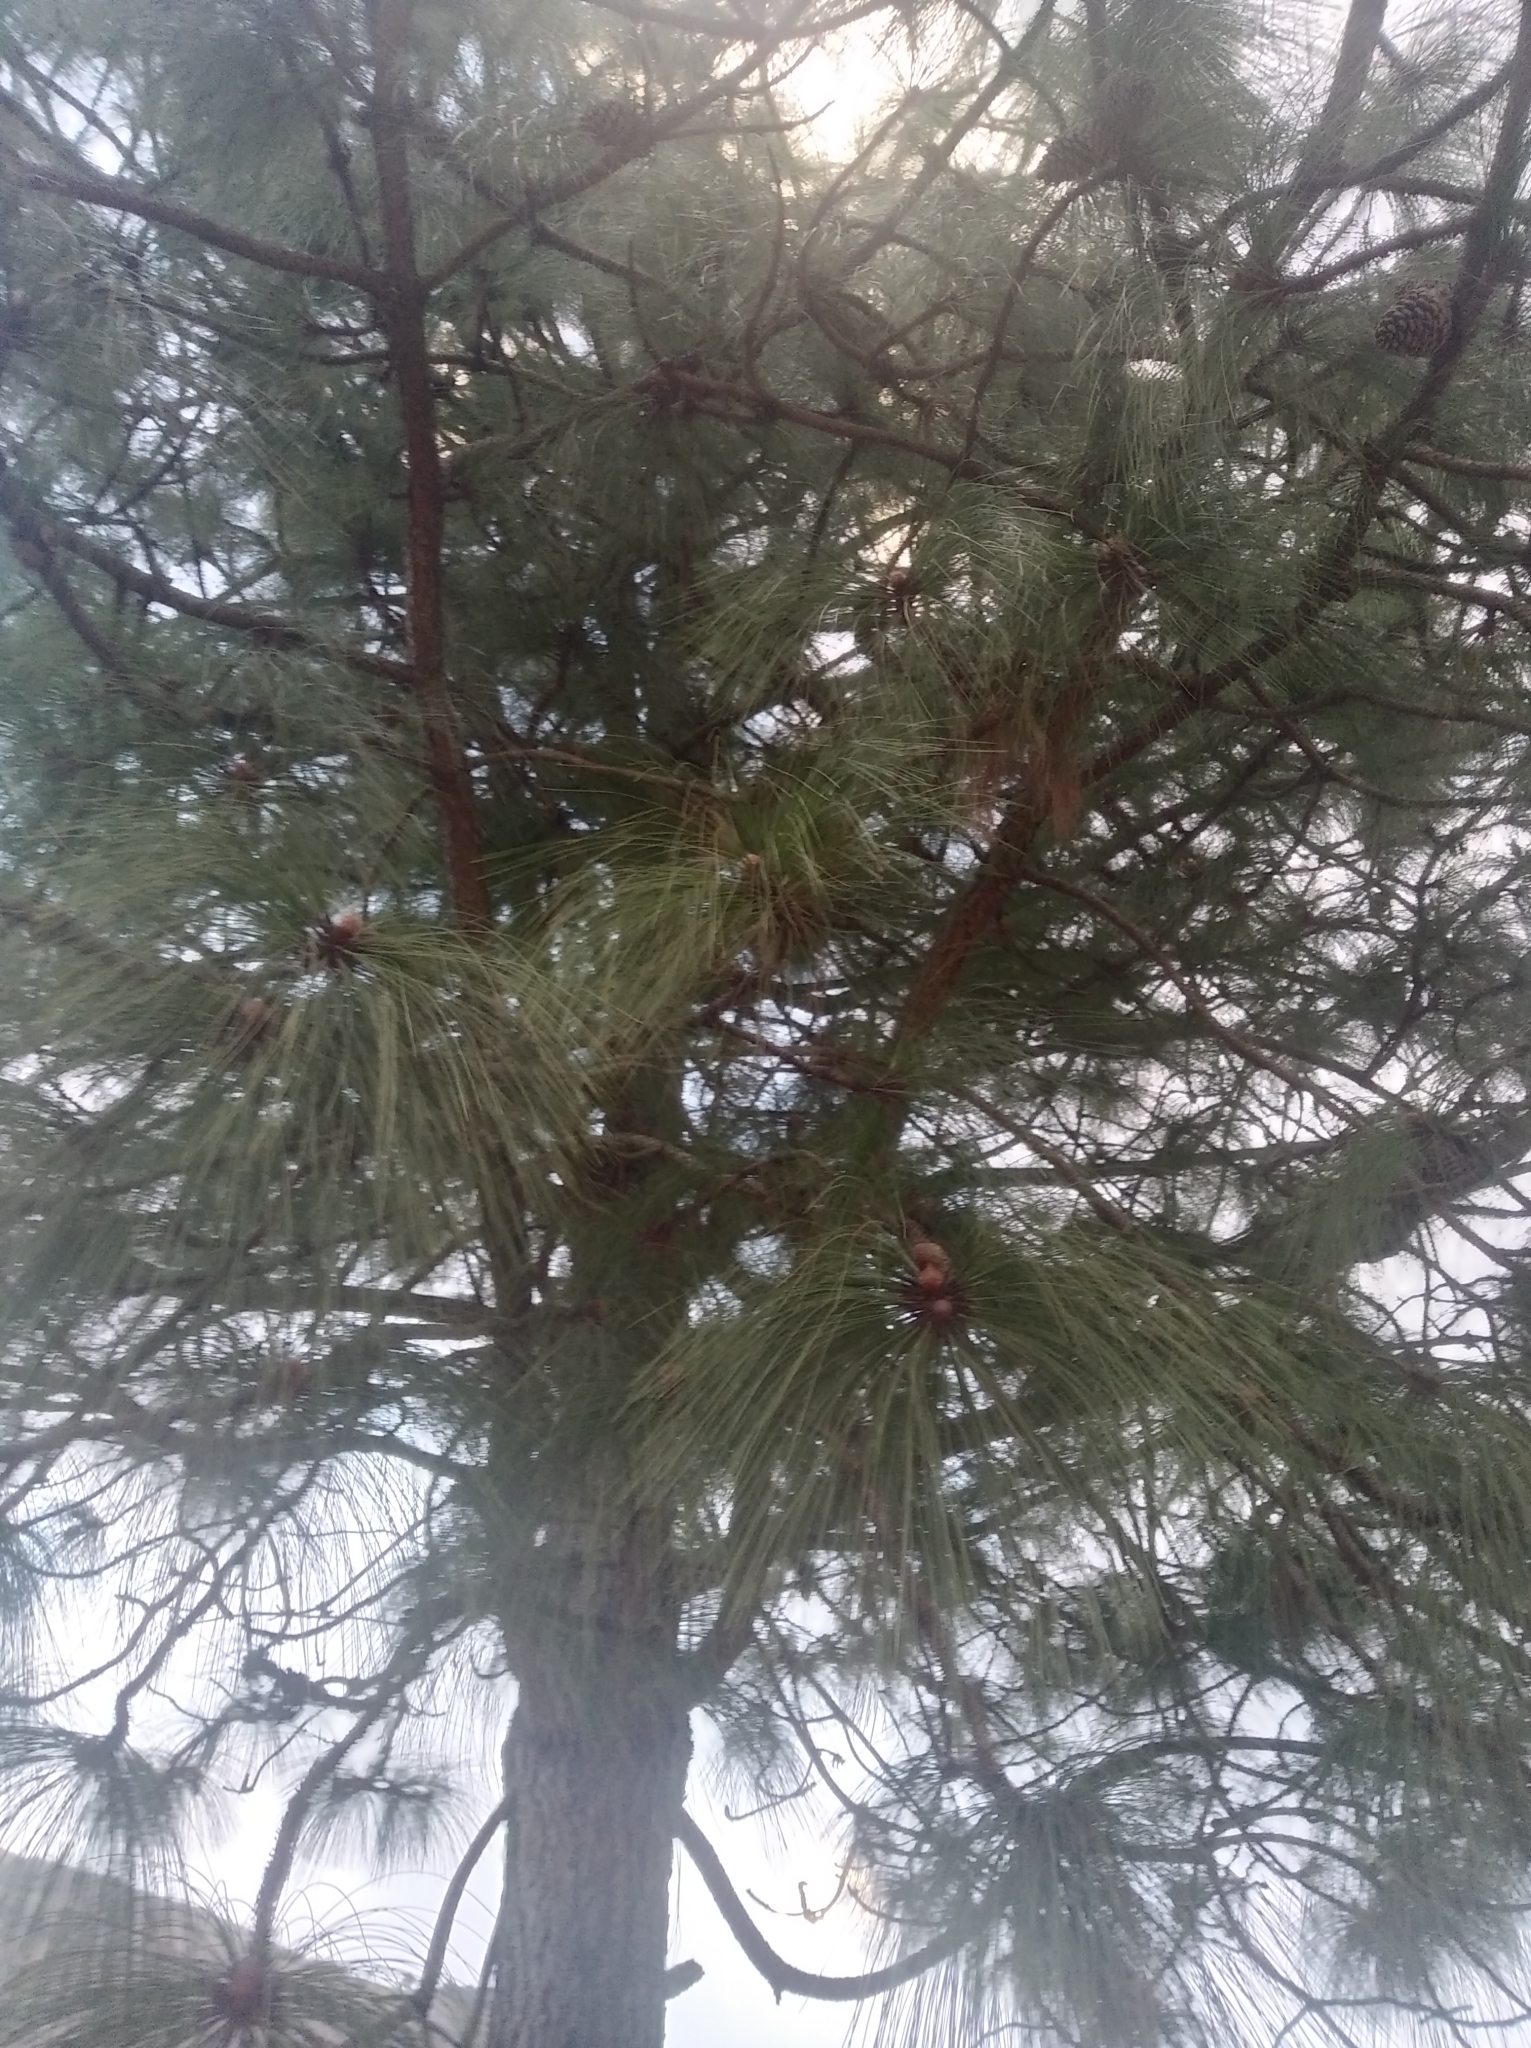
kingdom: Plantae
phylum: Tracheophyta
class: Pinopsida
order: Pinales
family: Pinaceae
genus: Pinus
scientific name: Pinus patula
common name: Mexican weeping pine
